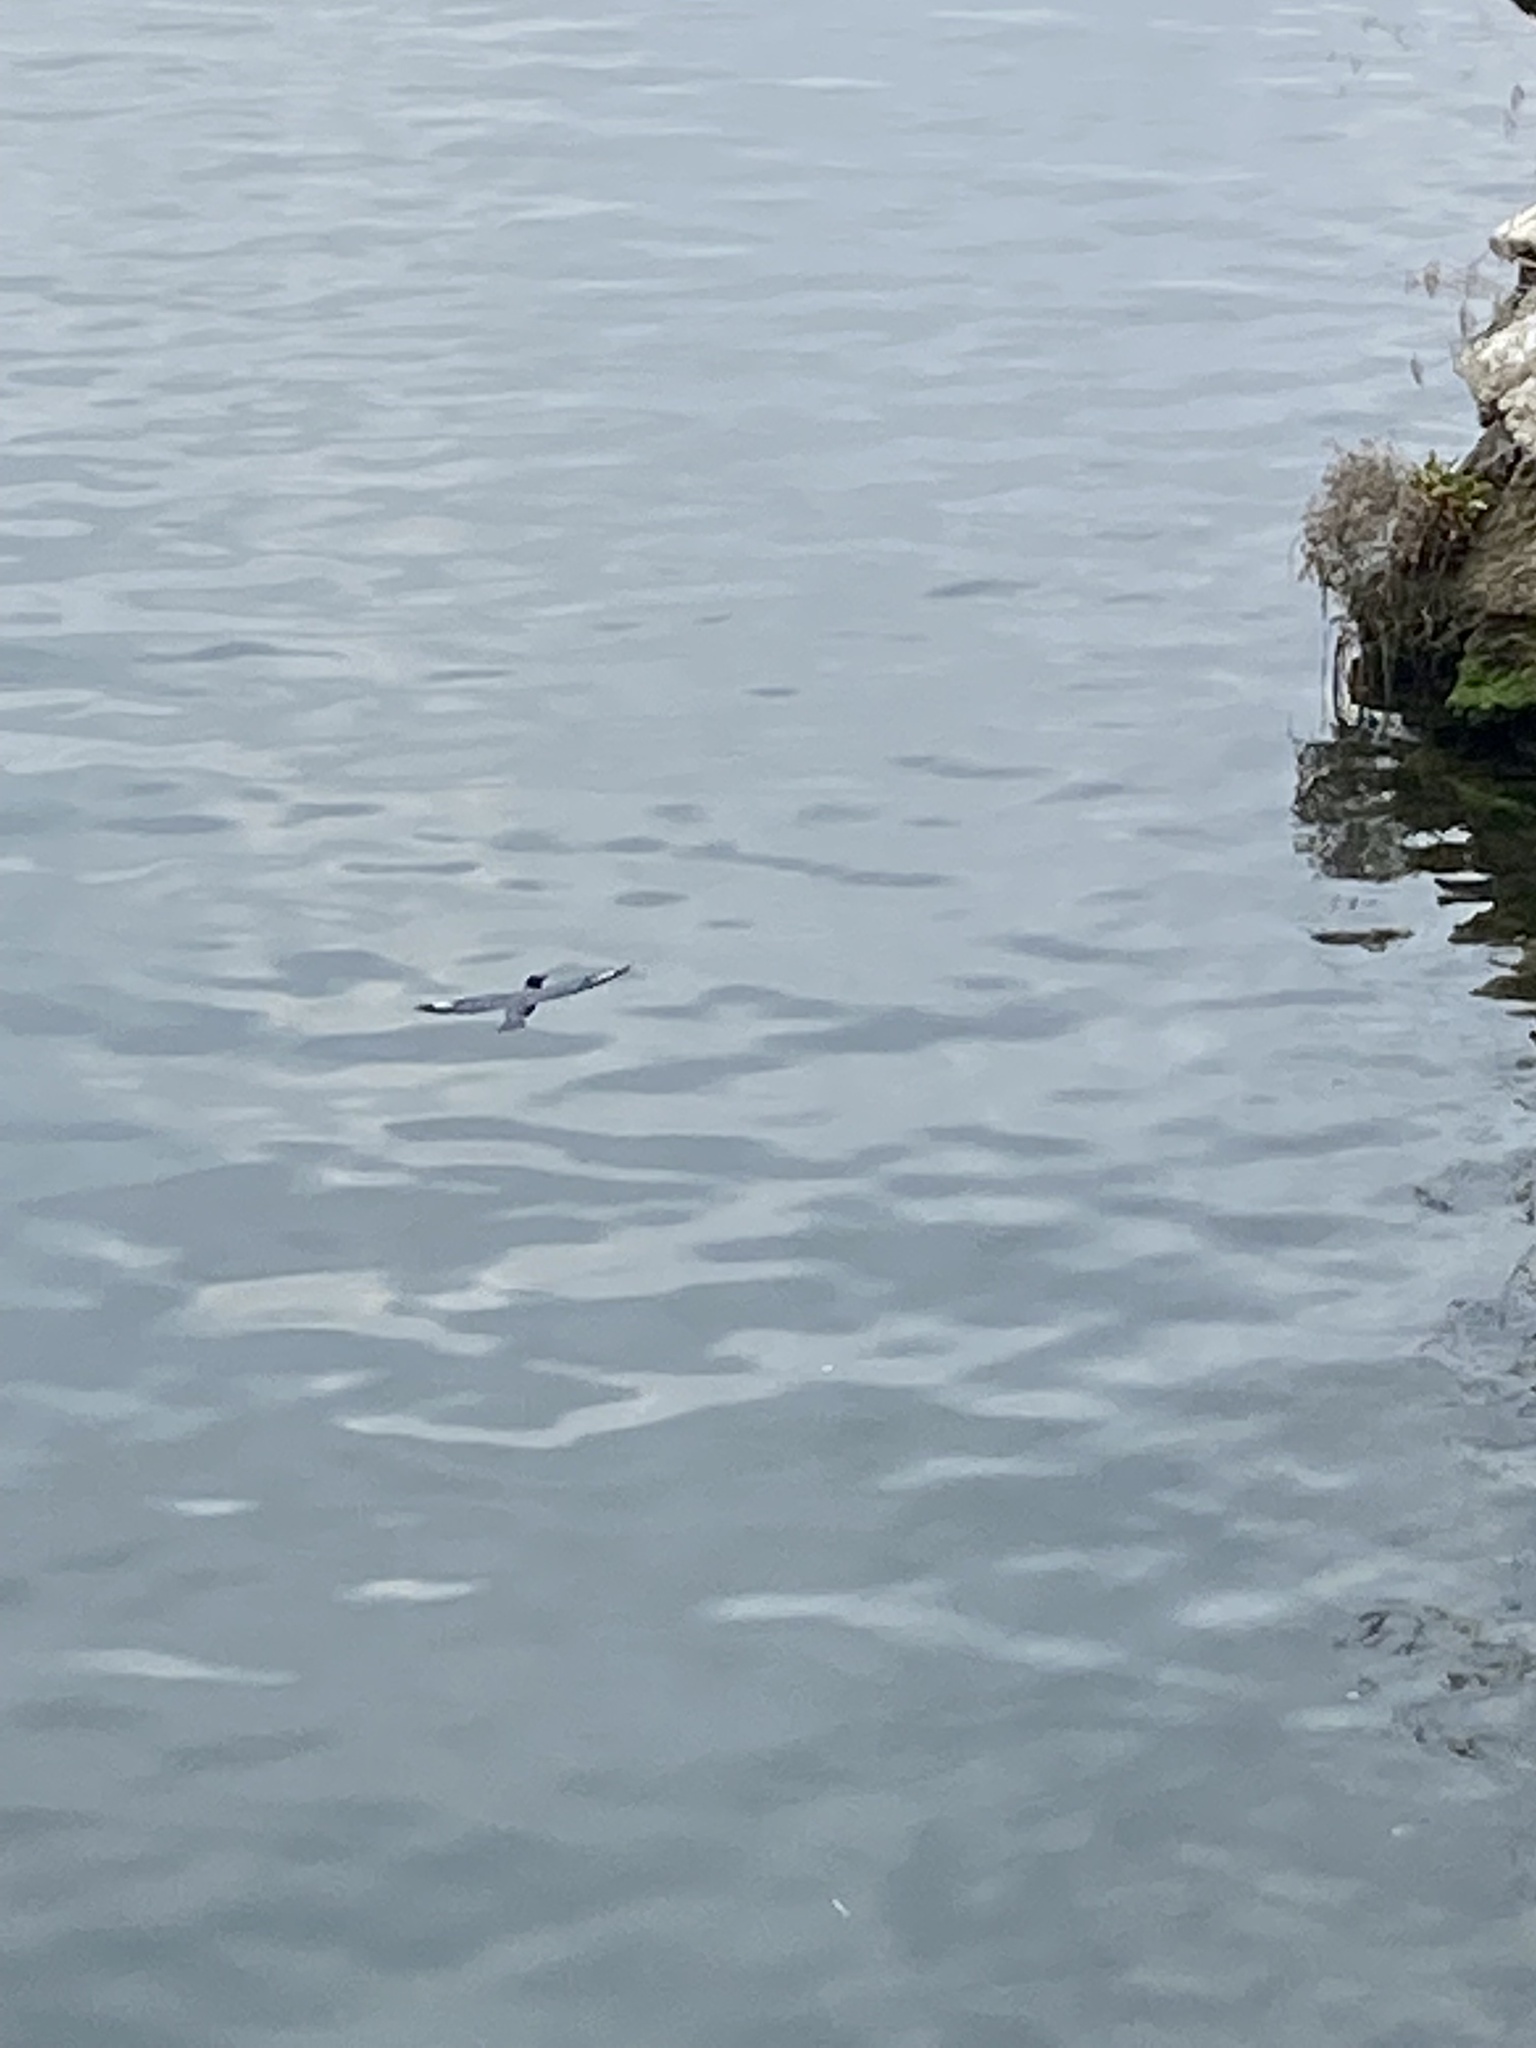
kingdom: Animalia
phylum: Chordata
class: Aves
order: Coraciiformes
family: Alcedinidae
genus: Megaceryle
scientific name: Megaceryle alcyon
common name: Belted kingfisher
